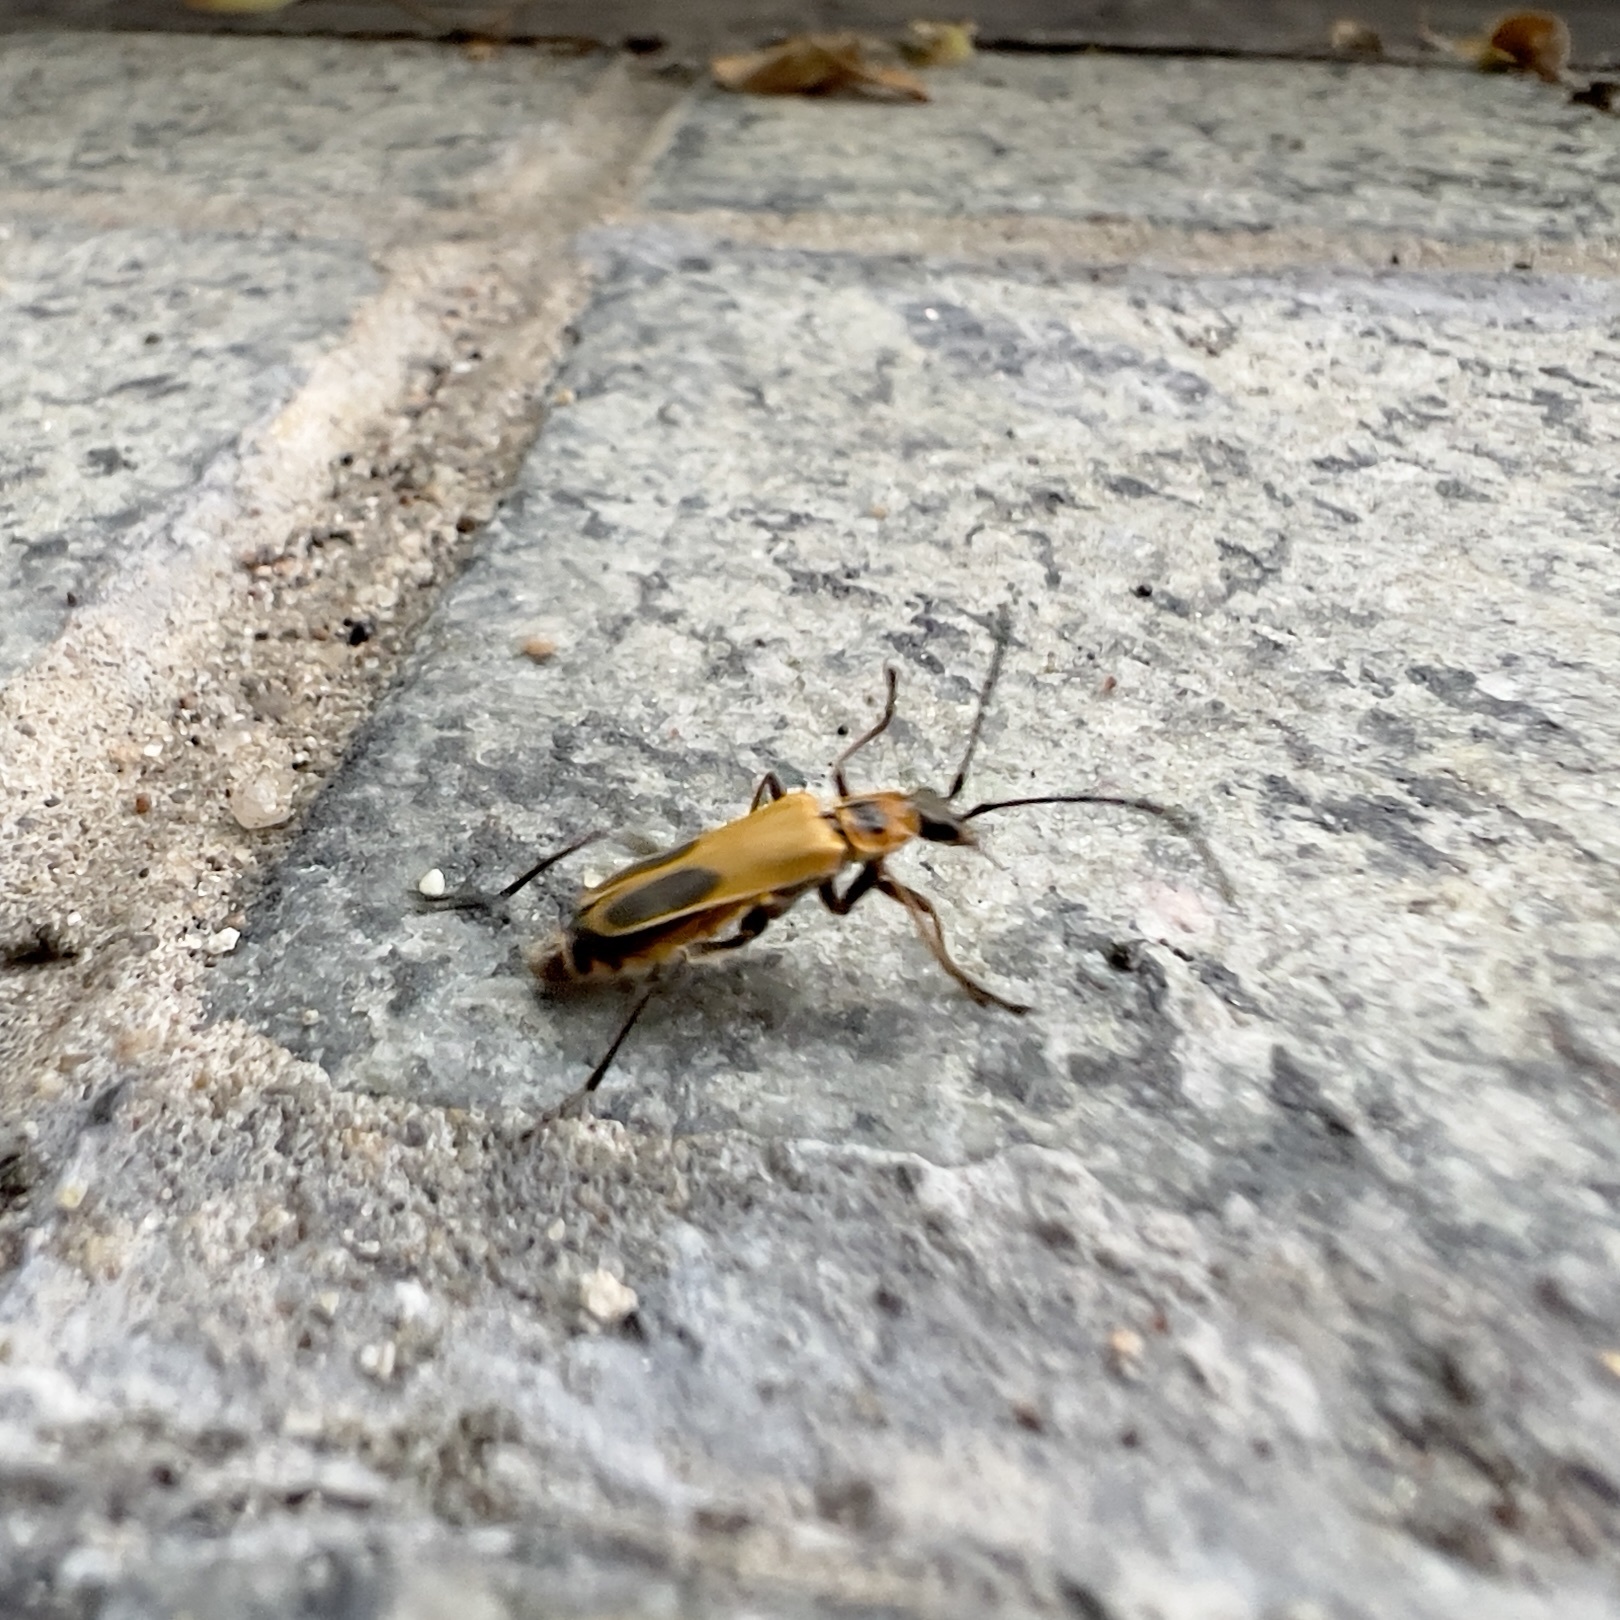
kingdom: Animalia
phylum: Arthropoda
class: Insecta
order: Coleoptera
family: Cantharidae
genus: Chauliognathus
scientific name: Chauliognathus pensylvanicus
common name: Goldenrod soldier beetle
